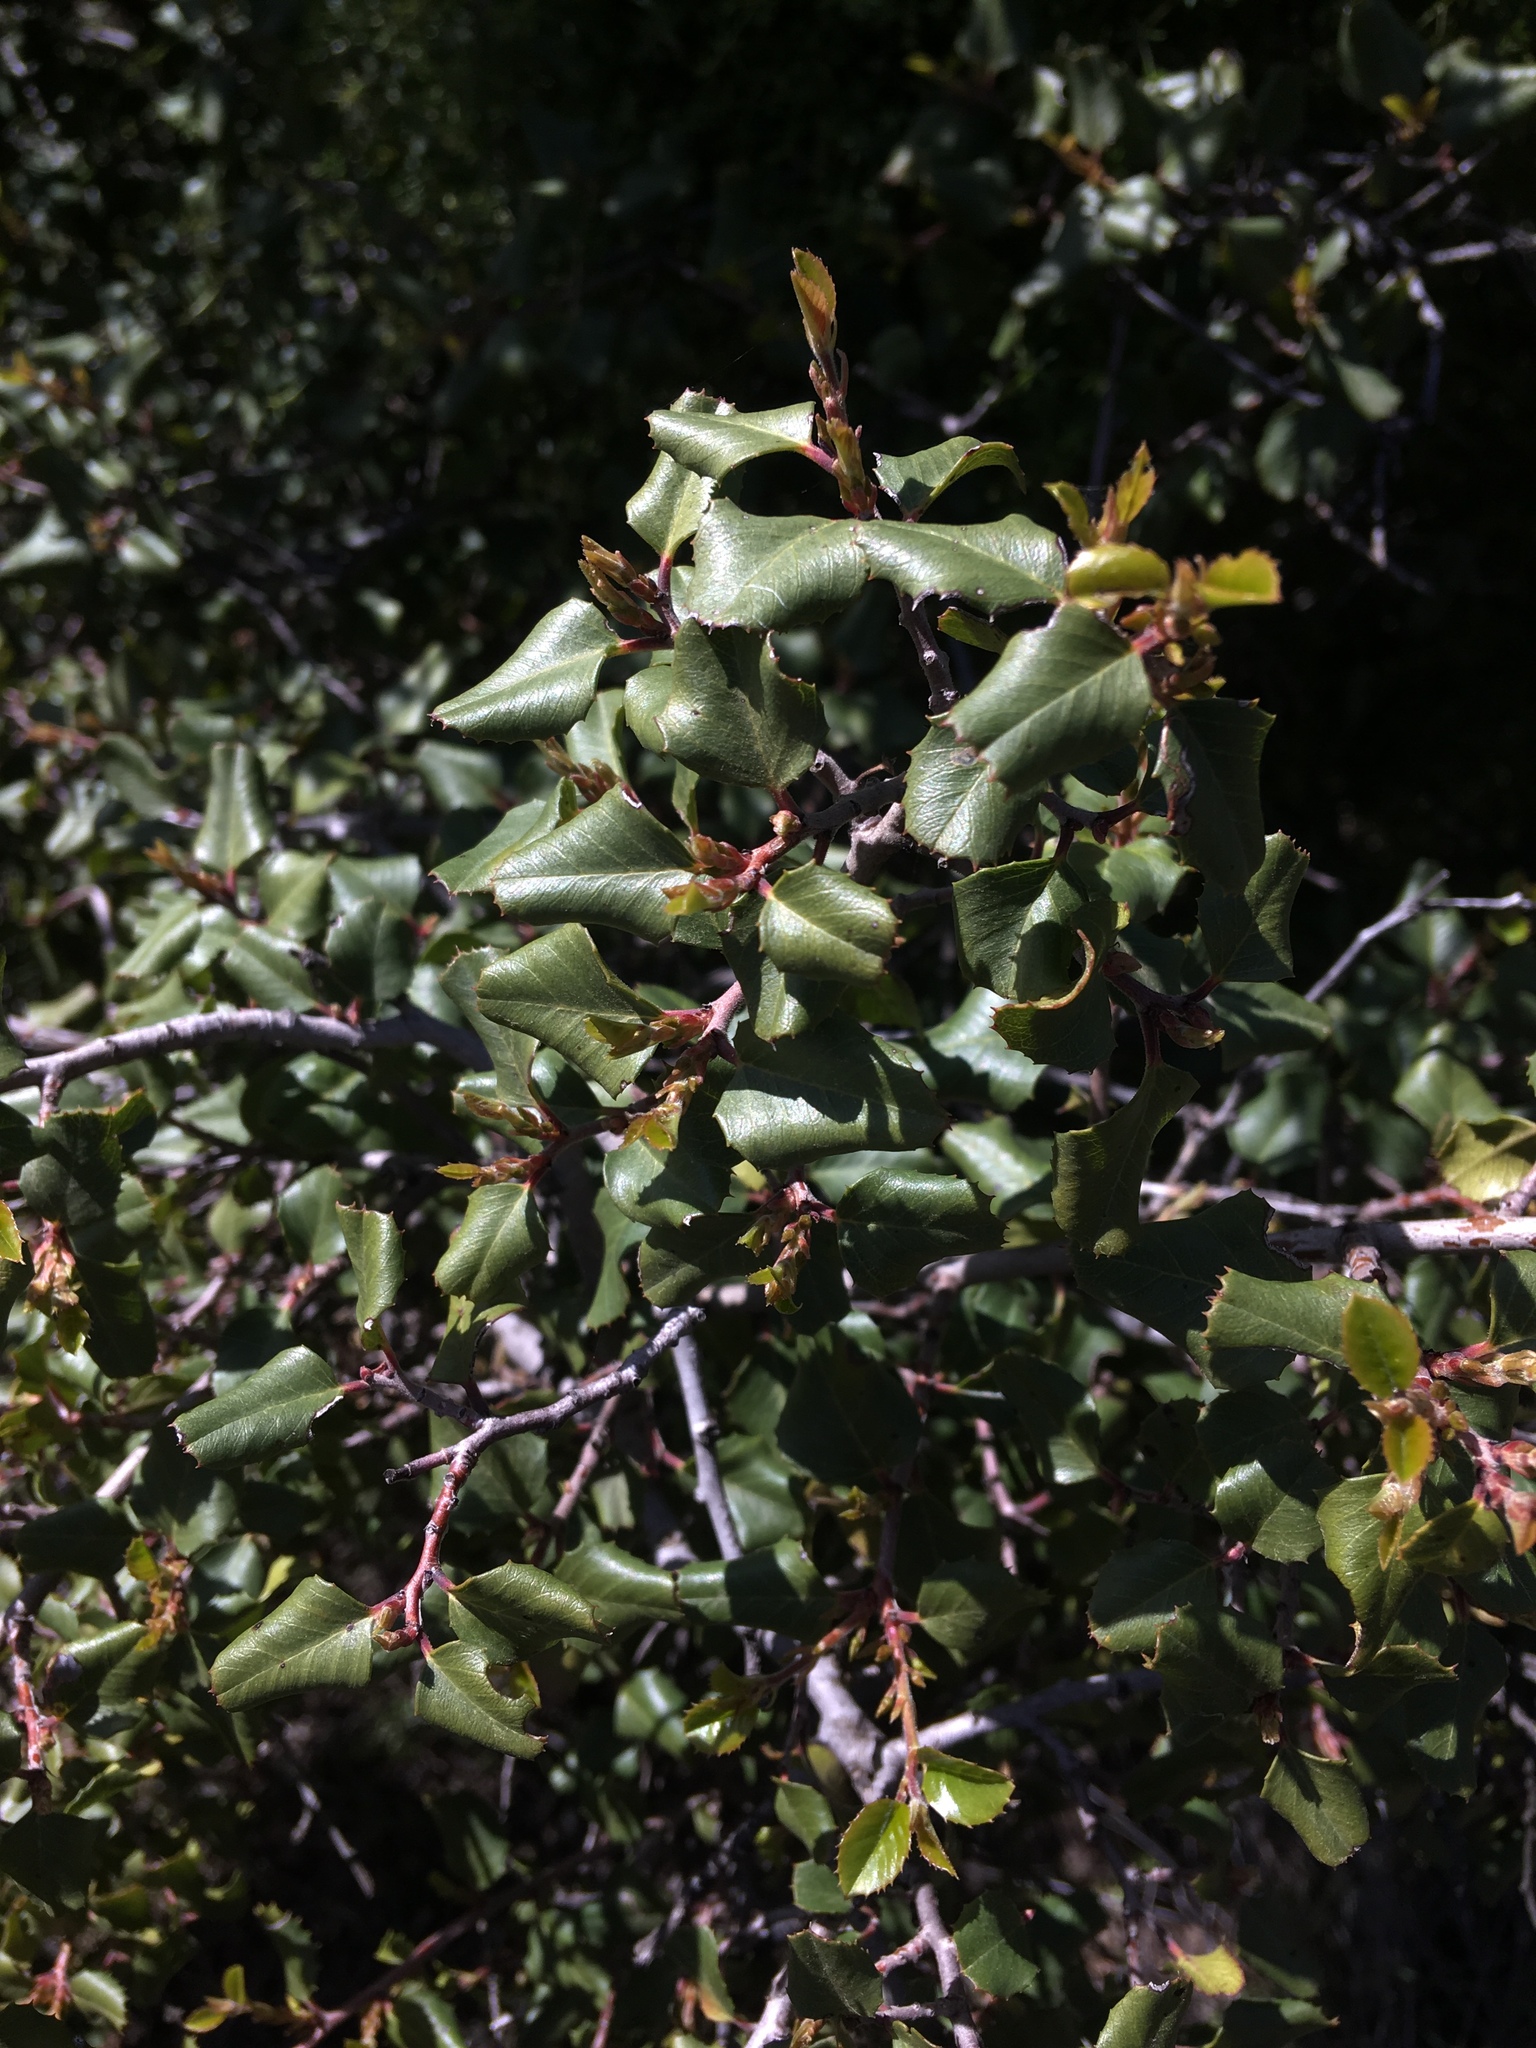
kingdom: Plantae
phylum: Tracheophyta
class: Magnoliopsida
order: Rosales
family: Rhamnaceae
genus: Endotropis
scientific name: Endotropis crocea
